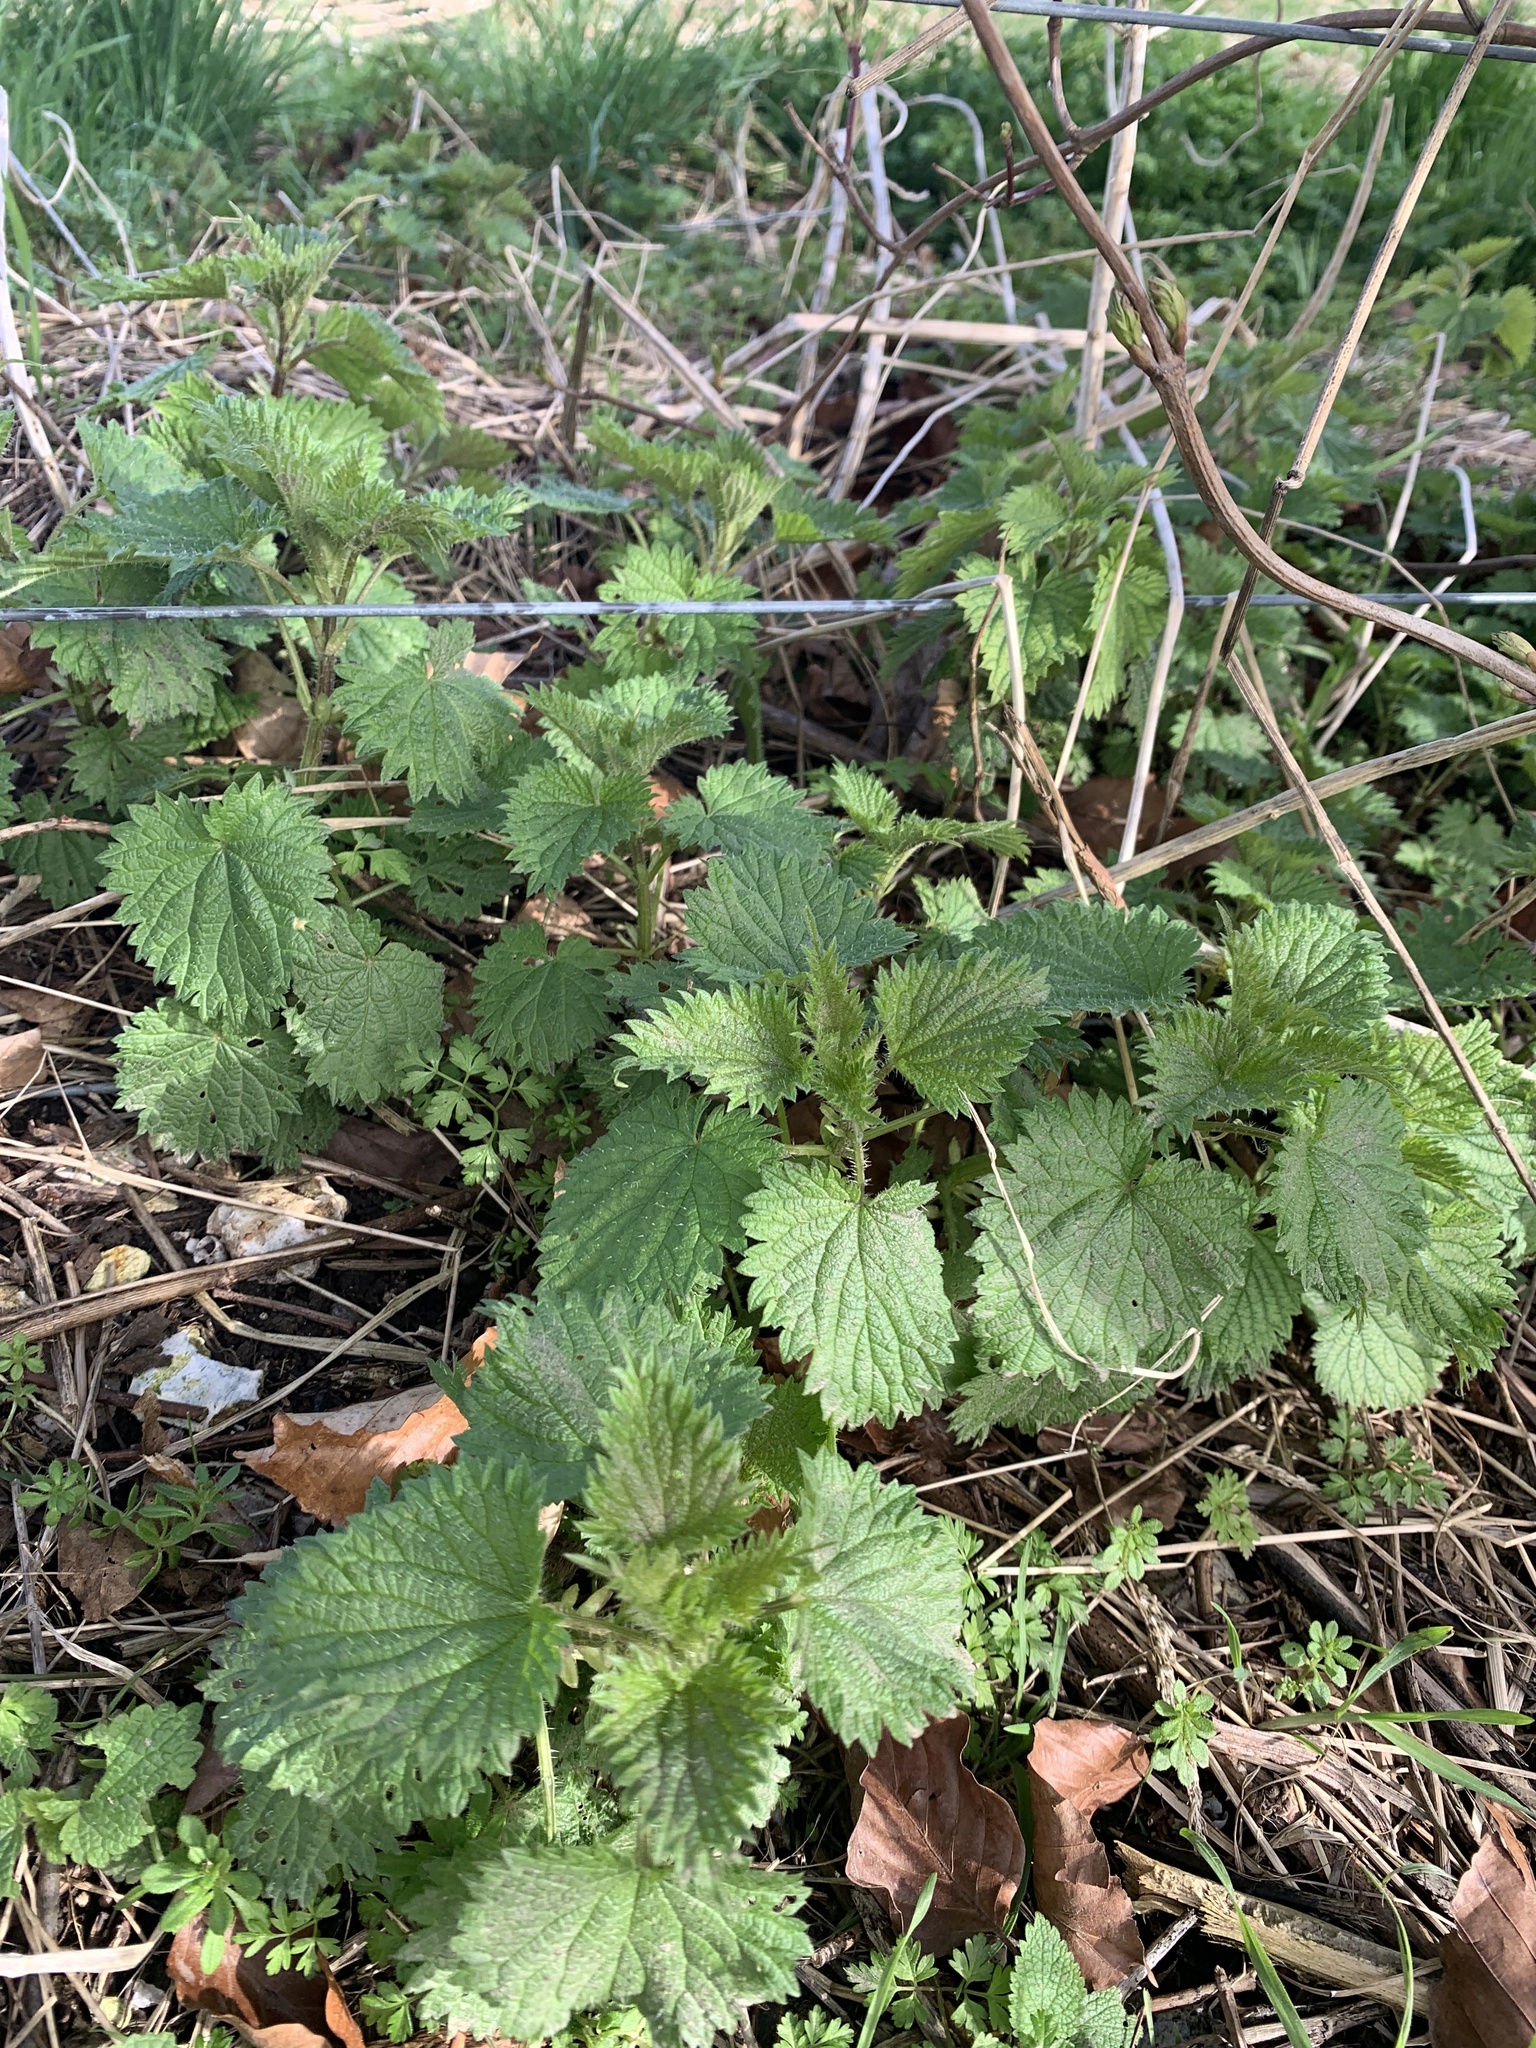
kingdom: Plantae
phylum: Tracheophyta
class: Magnoliopsida
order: Rosales
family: Urticaceae
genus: Urtica
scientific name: Urtica dioica
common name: Common nettle
